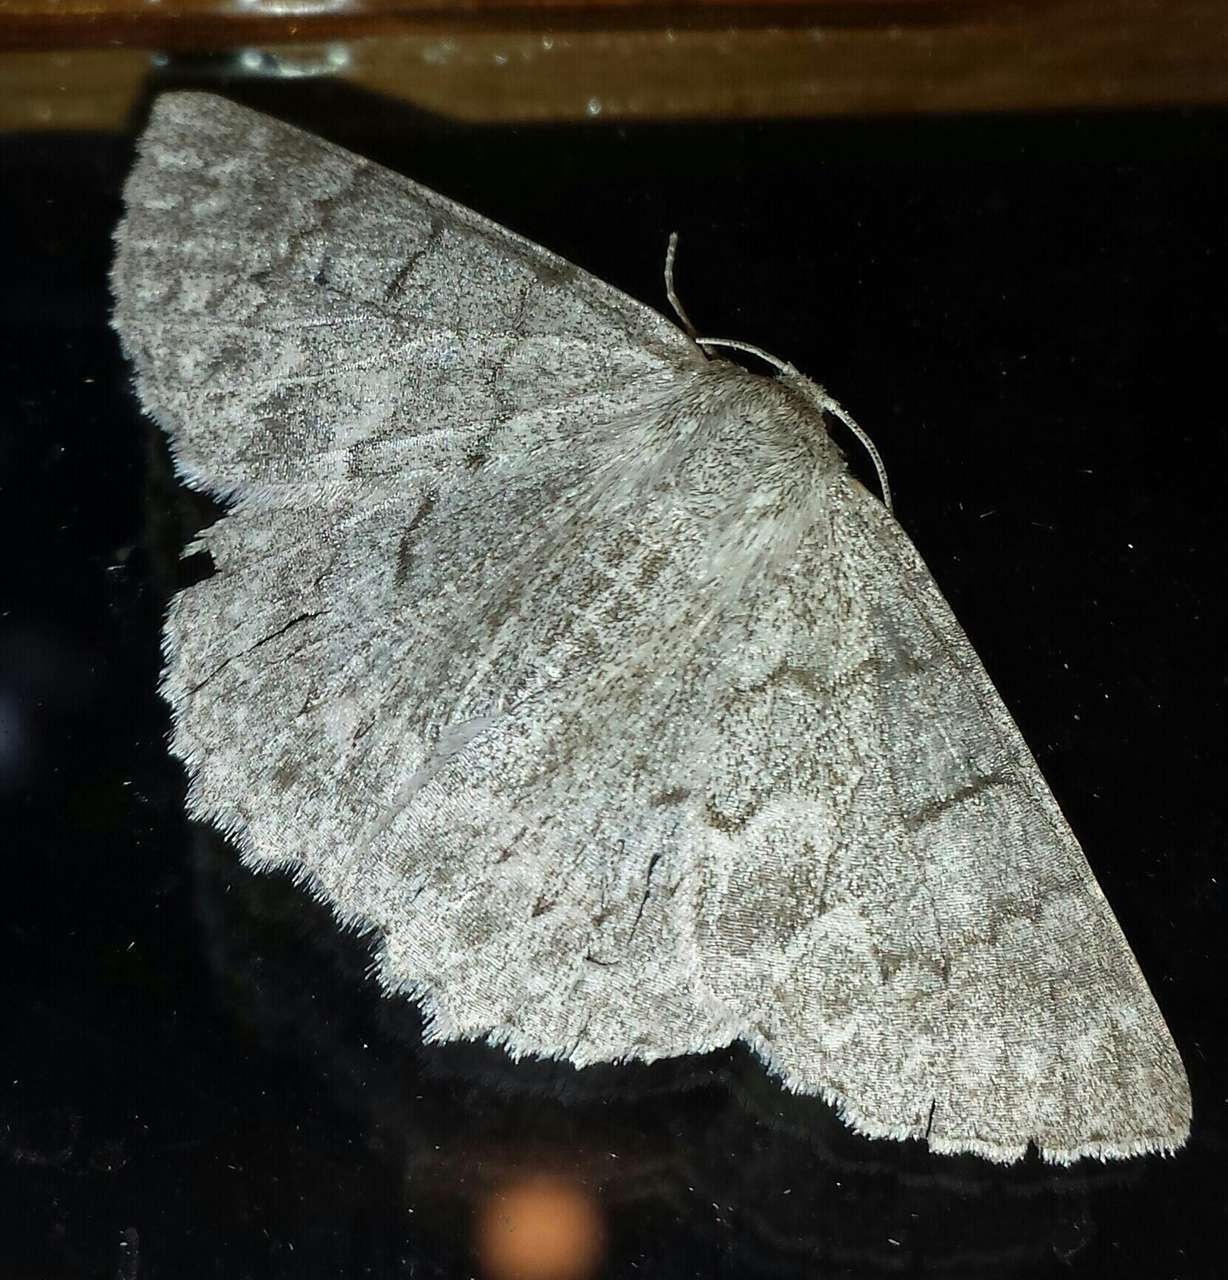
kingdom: Animalia
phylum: Arthropoda
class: Insecta
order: Lepidoptera
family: Geometridae
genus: Crypsiphona
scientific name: Crypsiphona ocultaria
